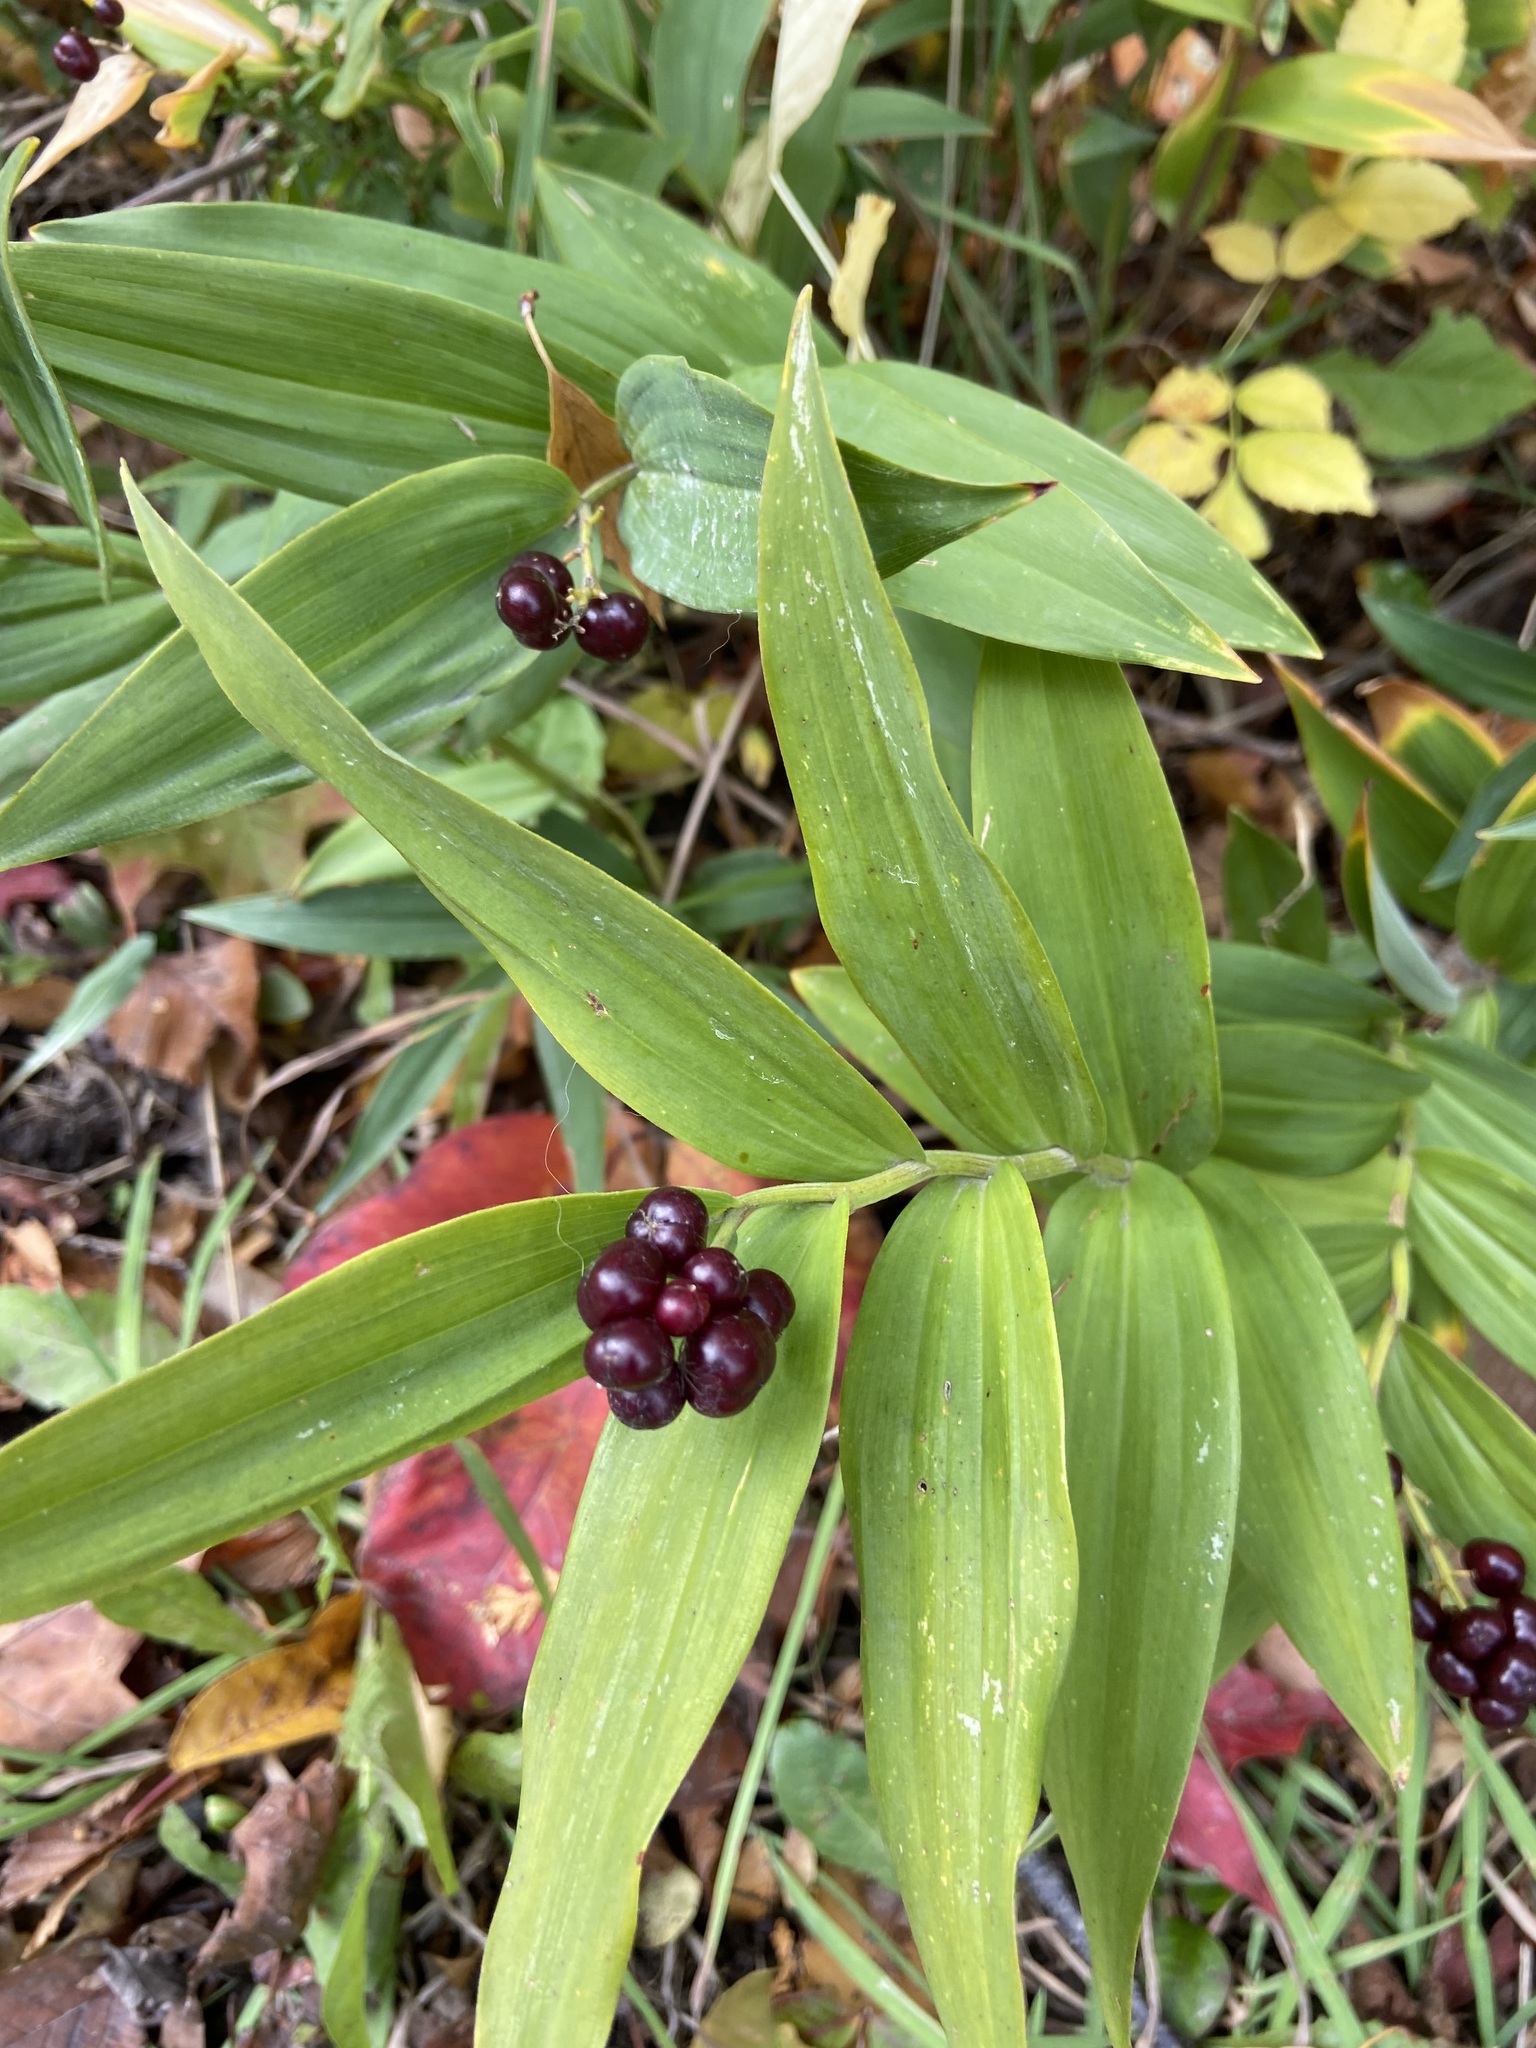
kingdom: Plantae
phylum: Tracheophyta
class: Liliopsida
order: Asparagales
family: Asparagaceae
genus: Maianthemum
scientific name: Maianthemum stellatum
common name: Little false solomon's seal
